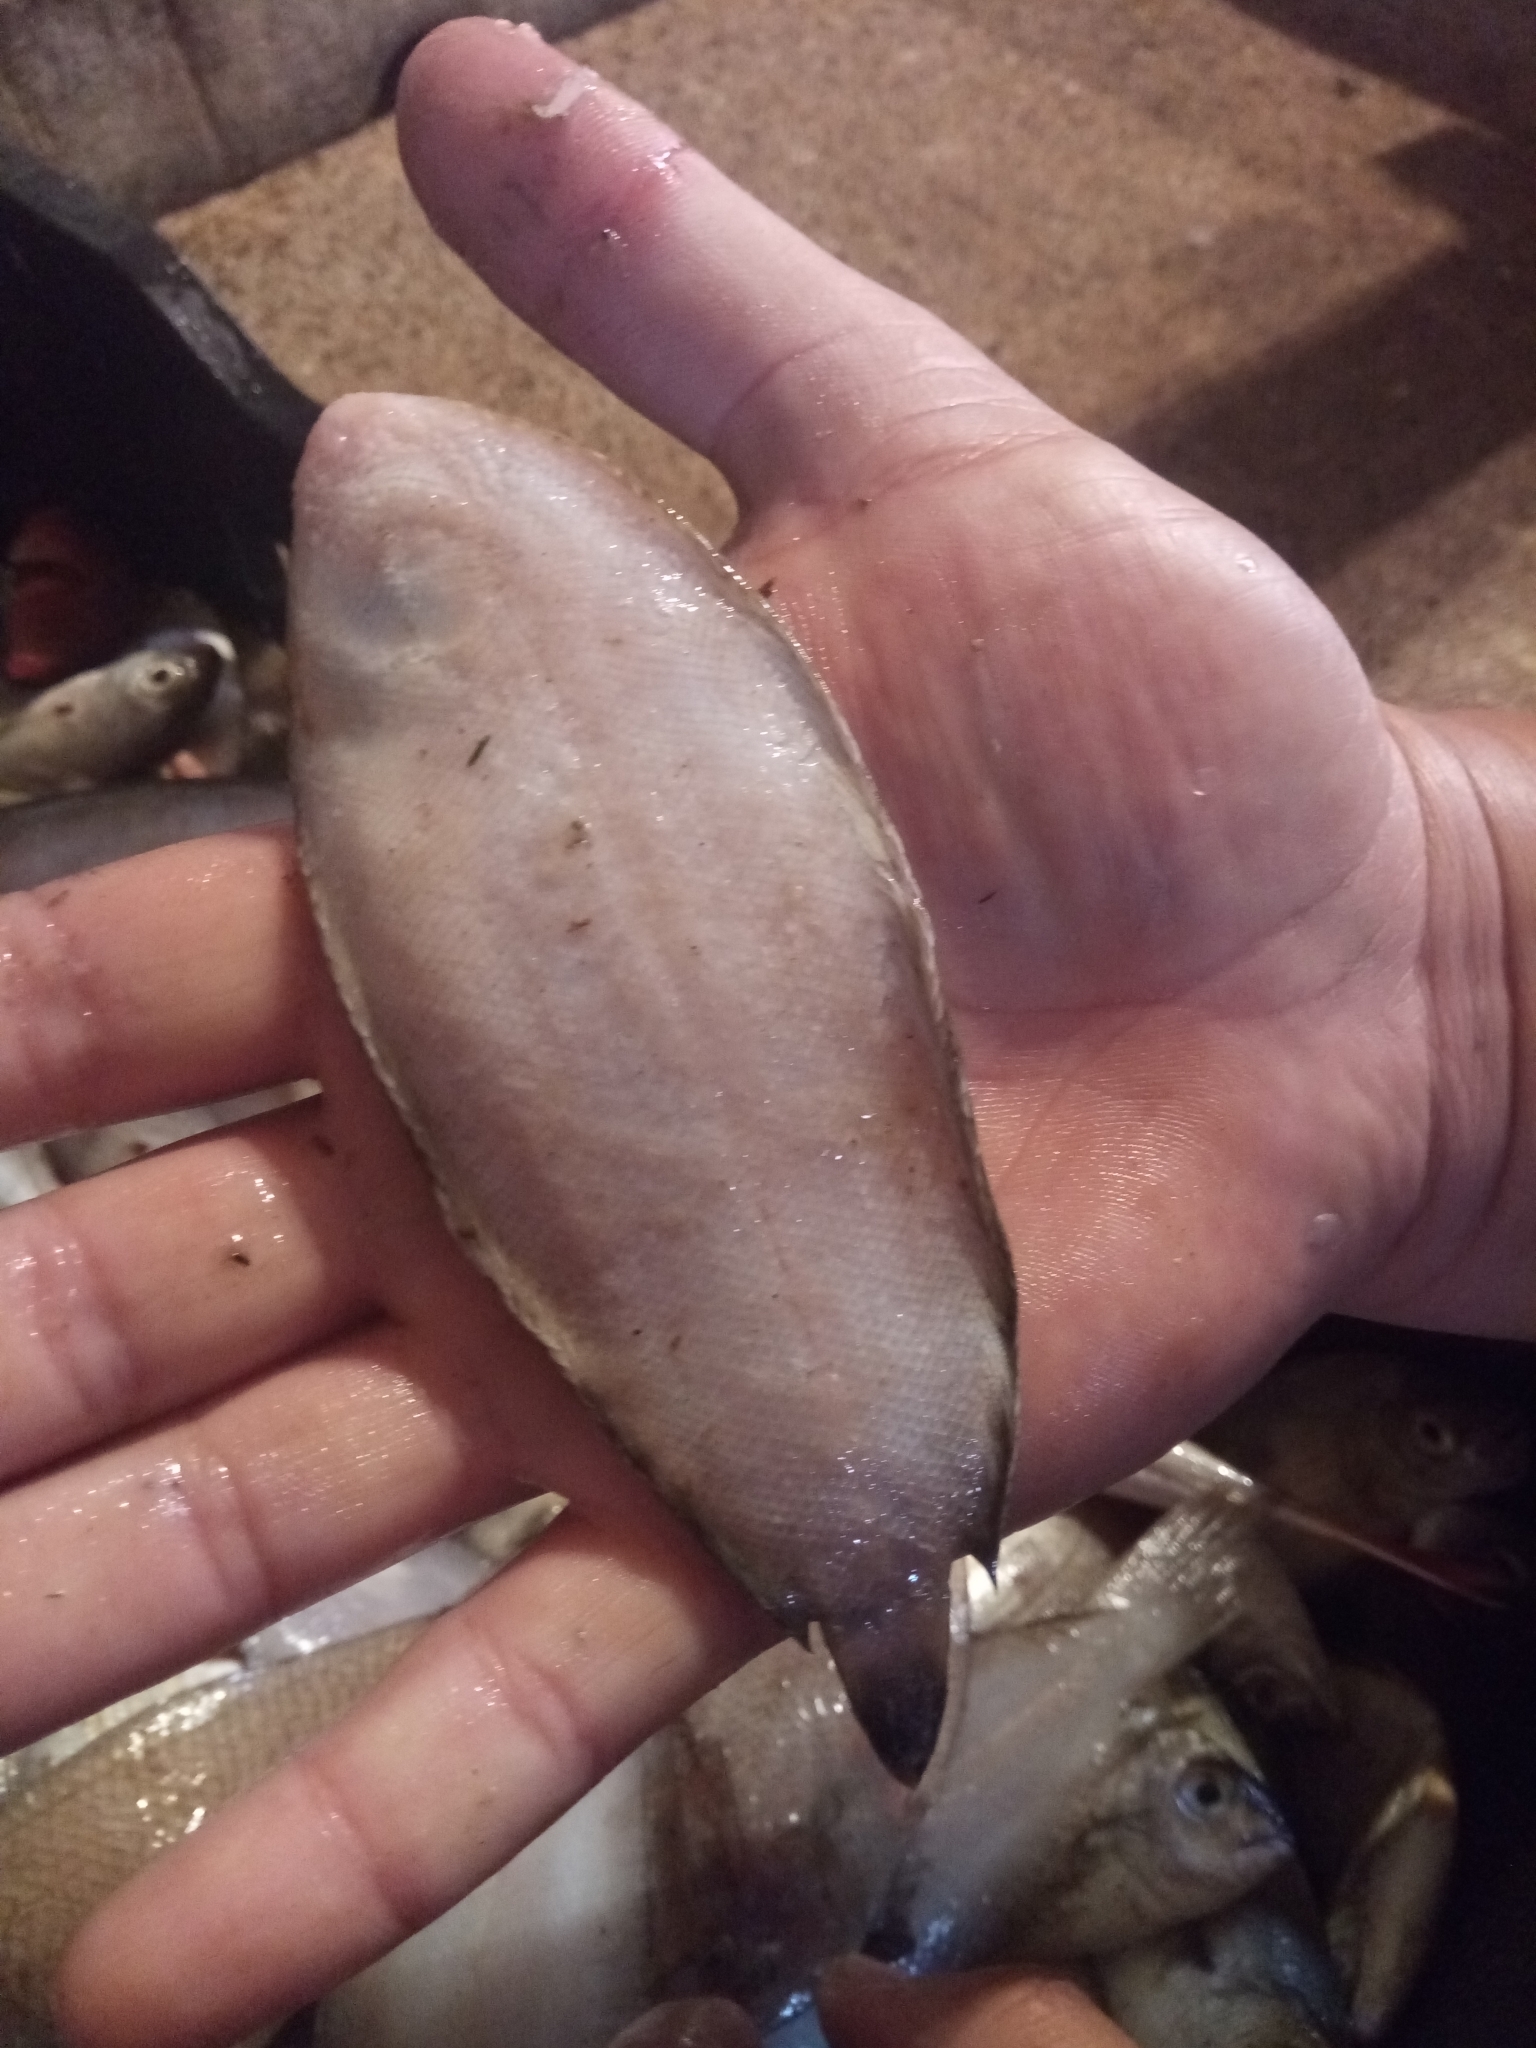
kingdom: Animalia
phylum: Chordata
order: Pleuronectiformes
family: Soleidae
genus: Microchirus
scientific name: Microchirus ocellatus
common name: Eyed sole
